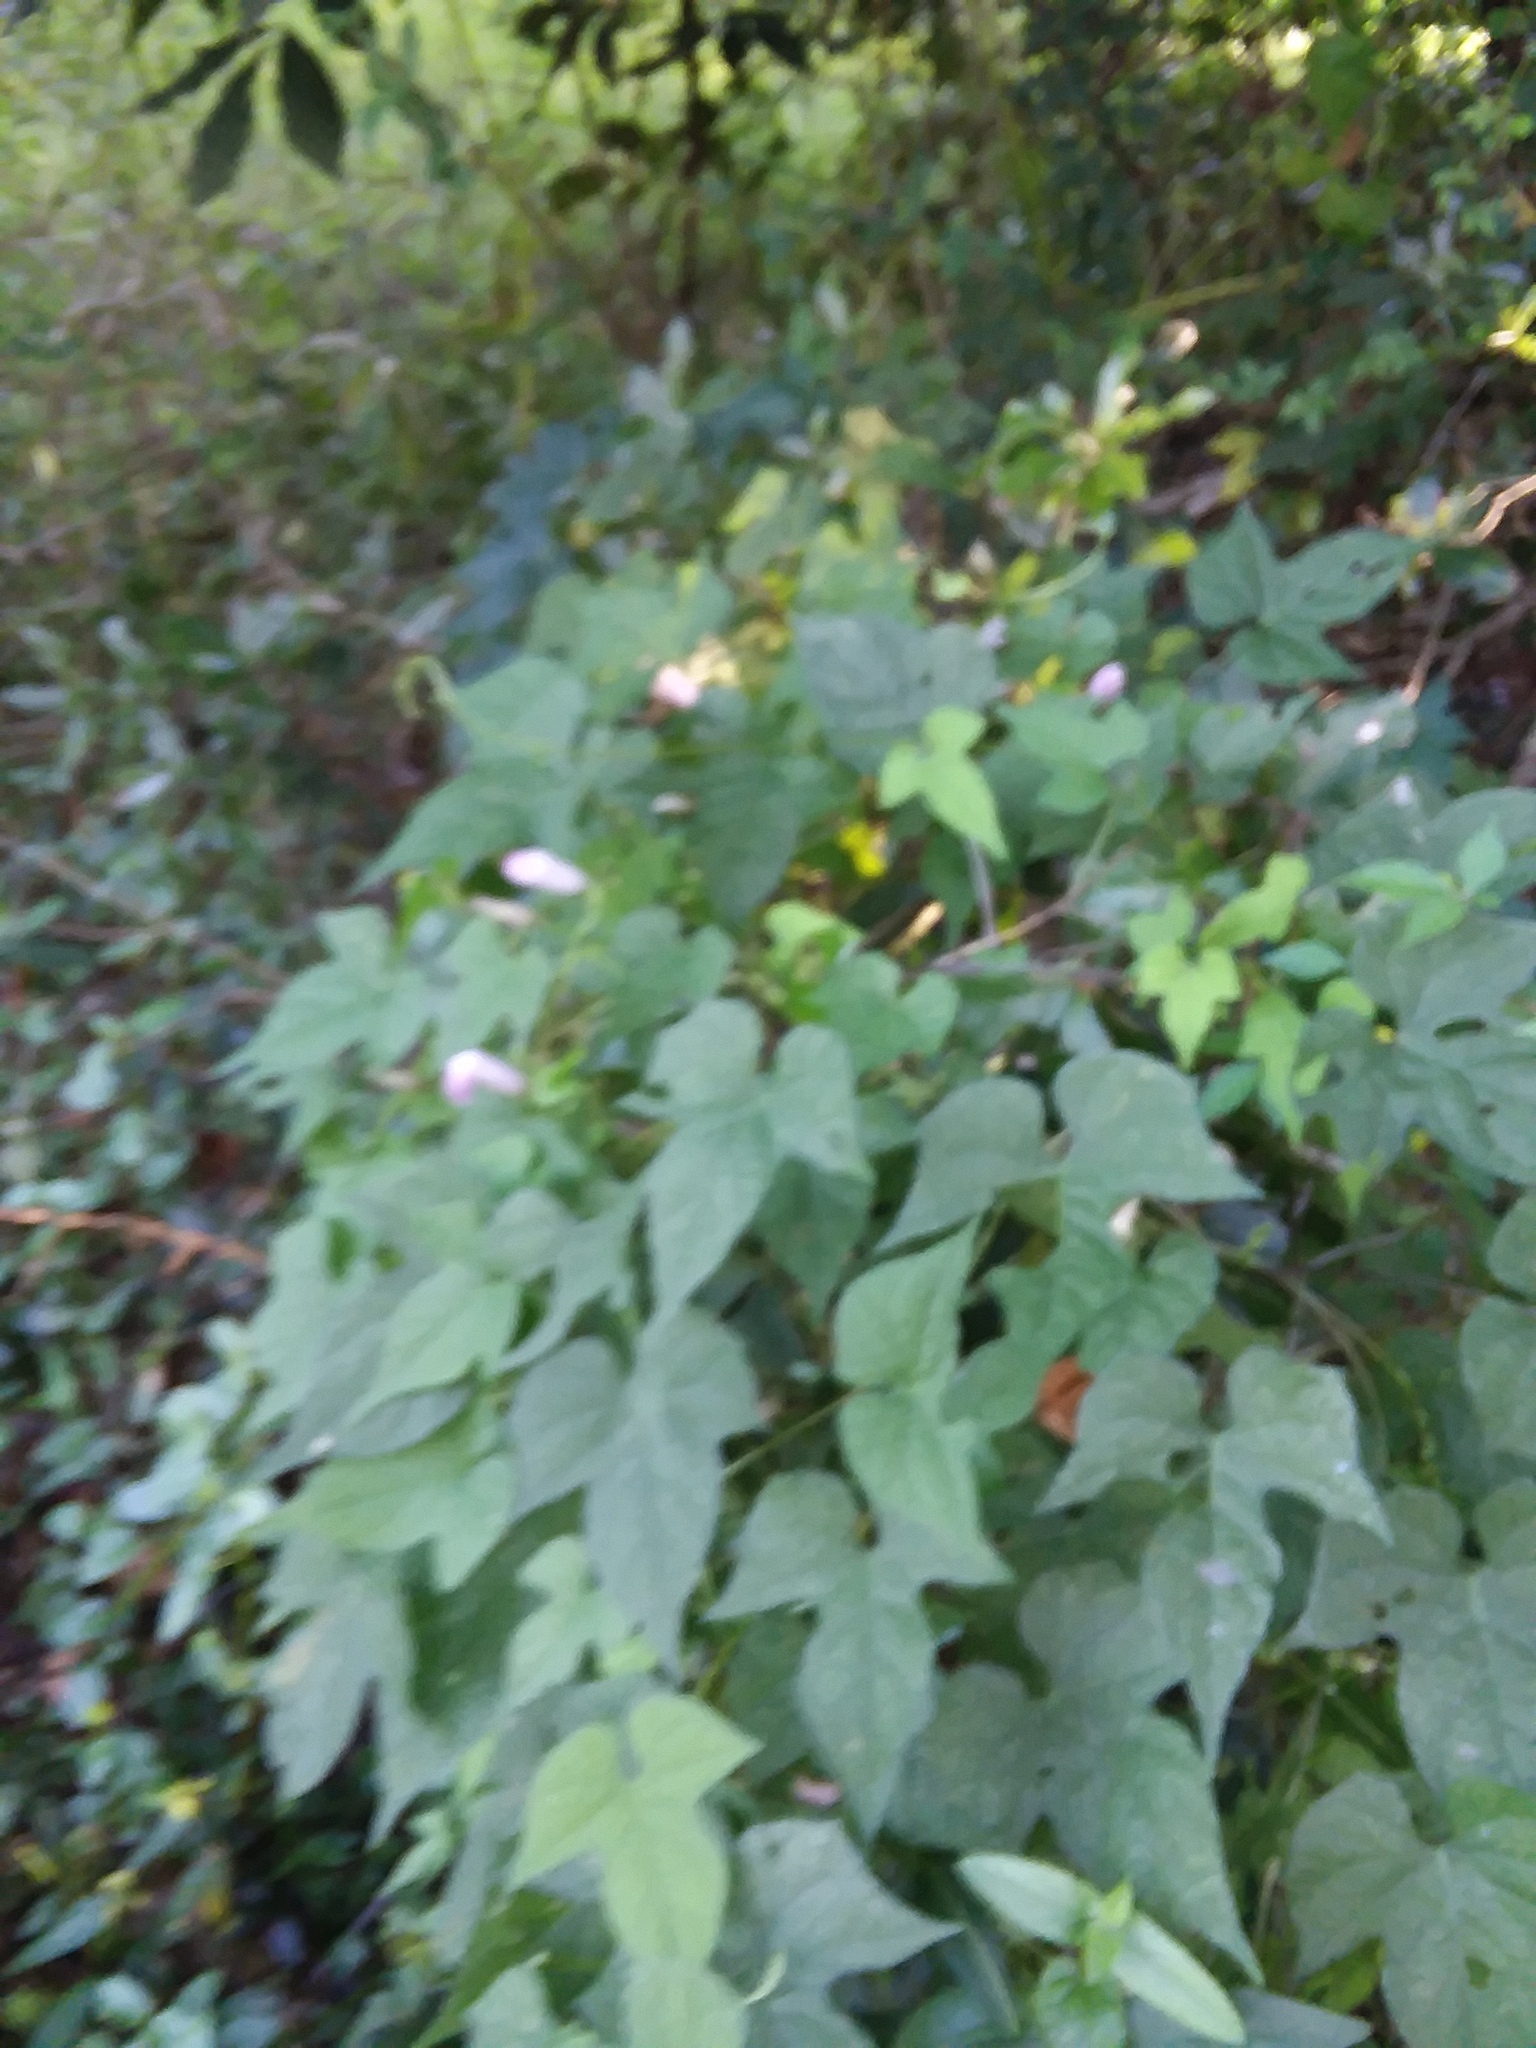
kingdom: Plantae
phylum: Tracheophyta
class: Magnoliopsida
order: Solanales
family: Convolvulaceae
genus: Ipomoea
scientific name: Ipomoea cordatotriloba
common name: Cotton morning glory
